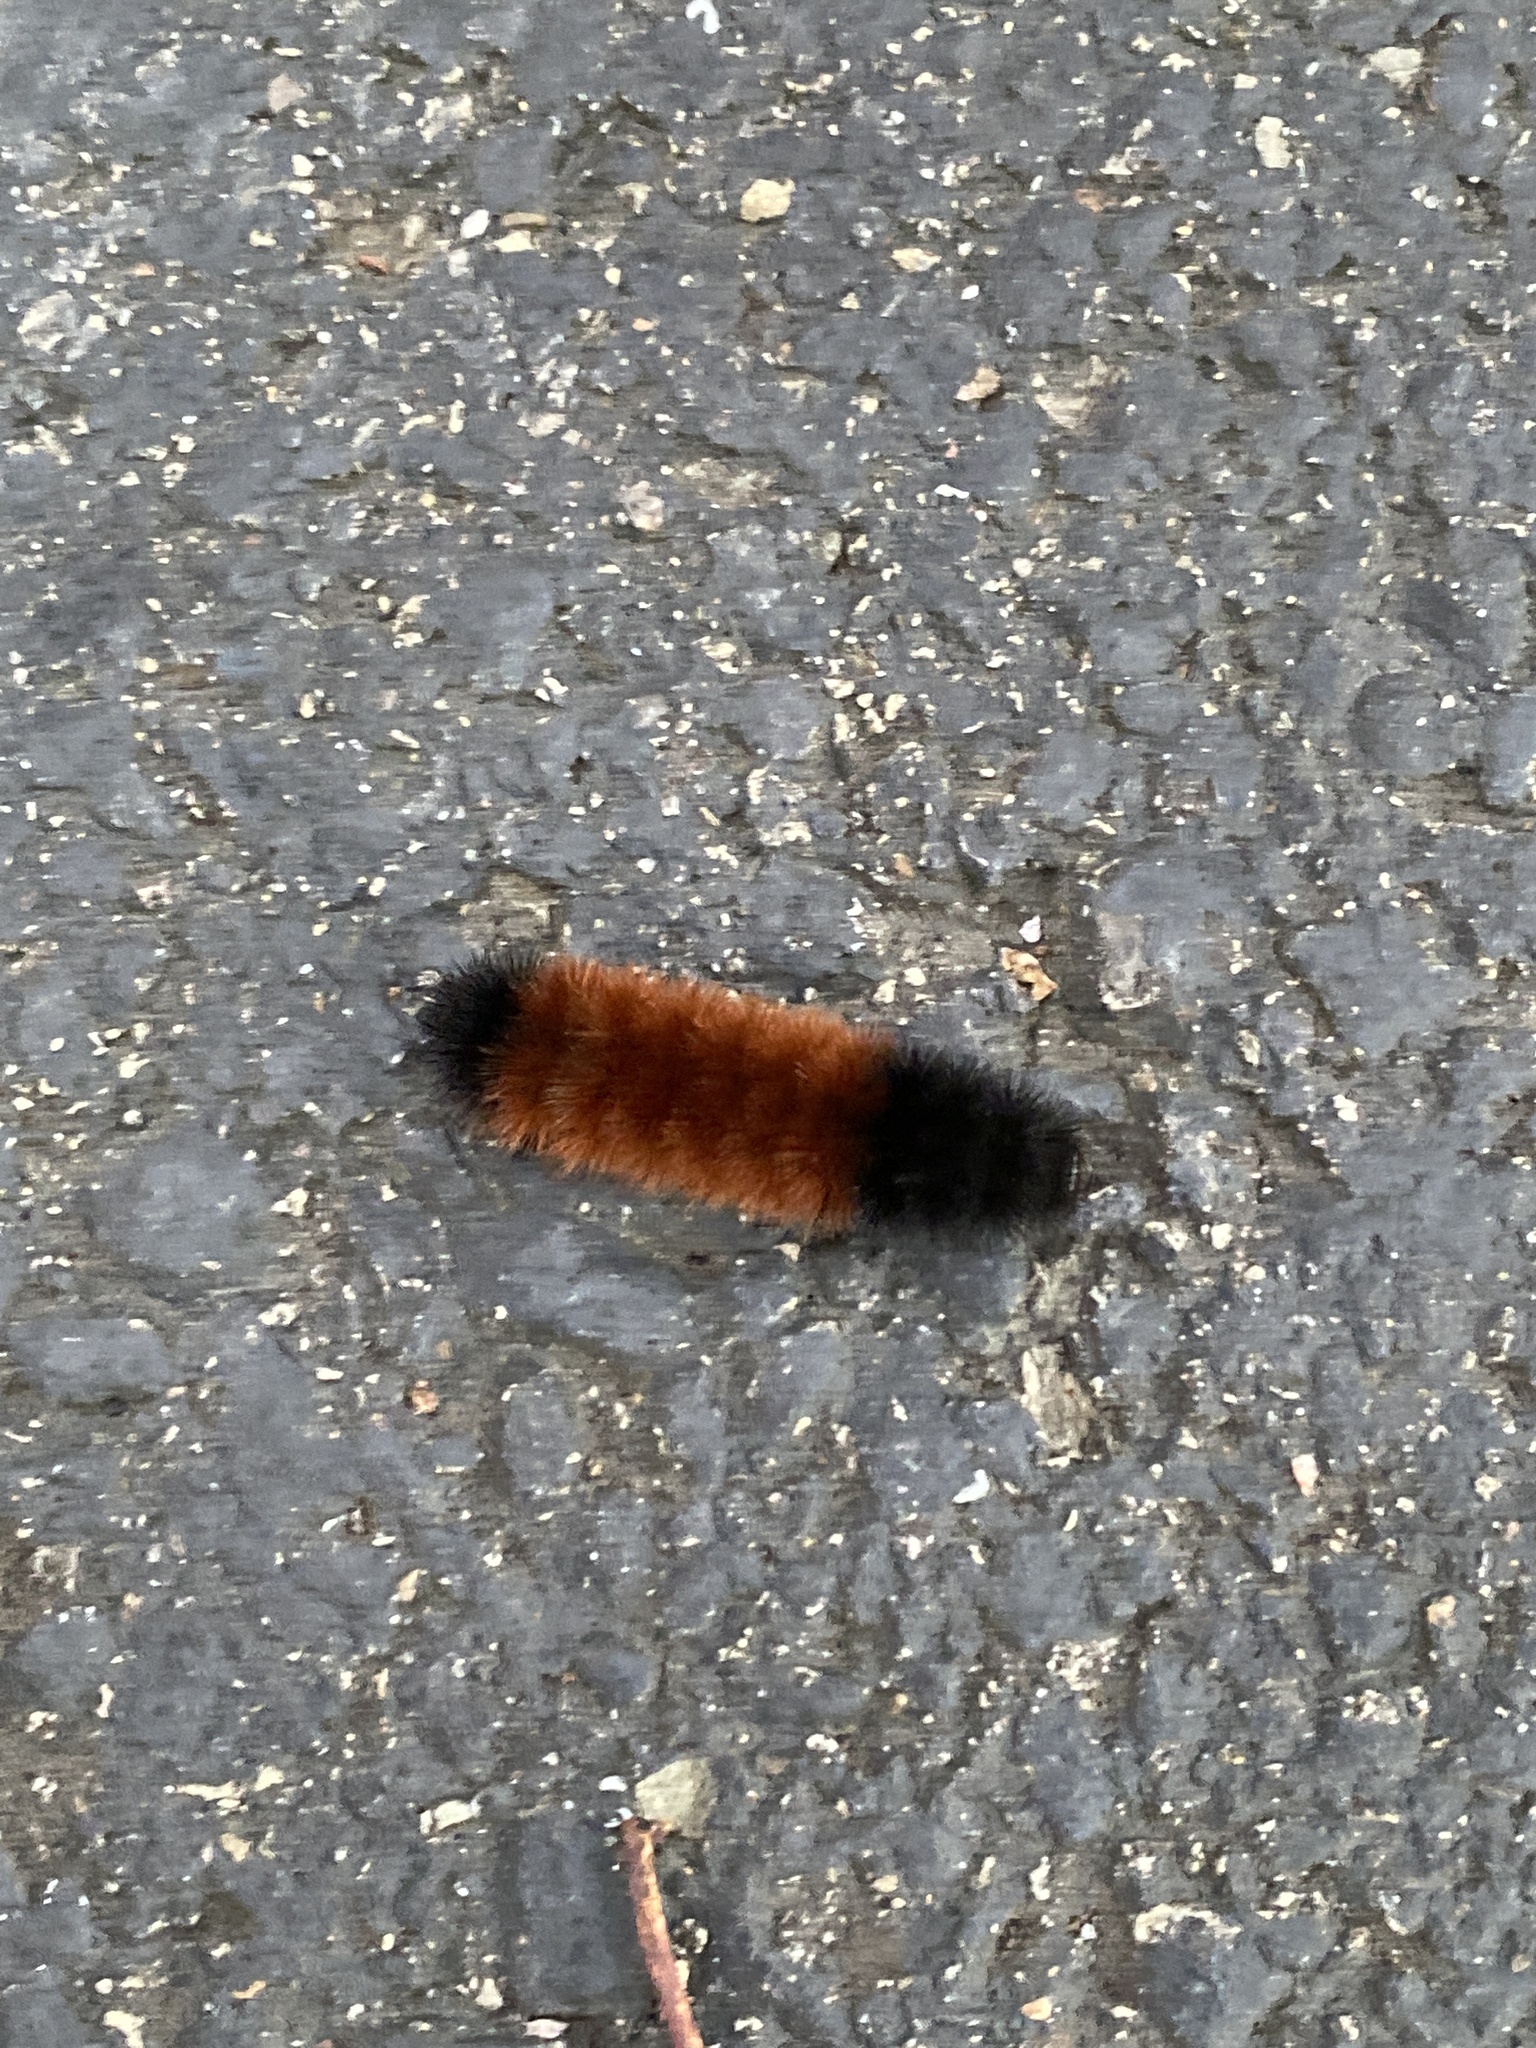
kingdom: Animalia
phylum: Arthropoda
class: Insecta
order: Lepidoptera
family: Erebidae
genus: Pyrrharctia
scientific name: Pyrrharctia isabella
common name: Isabella tiger moth
